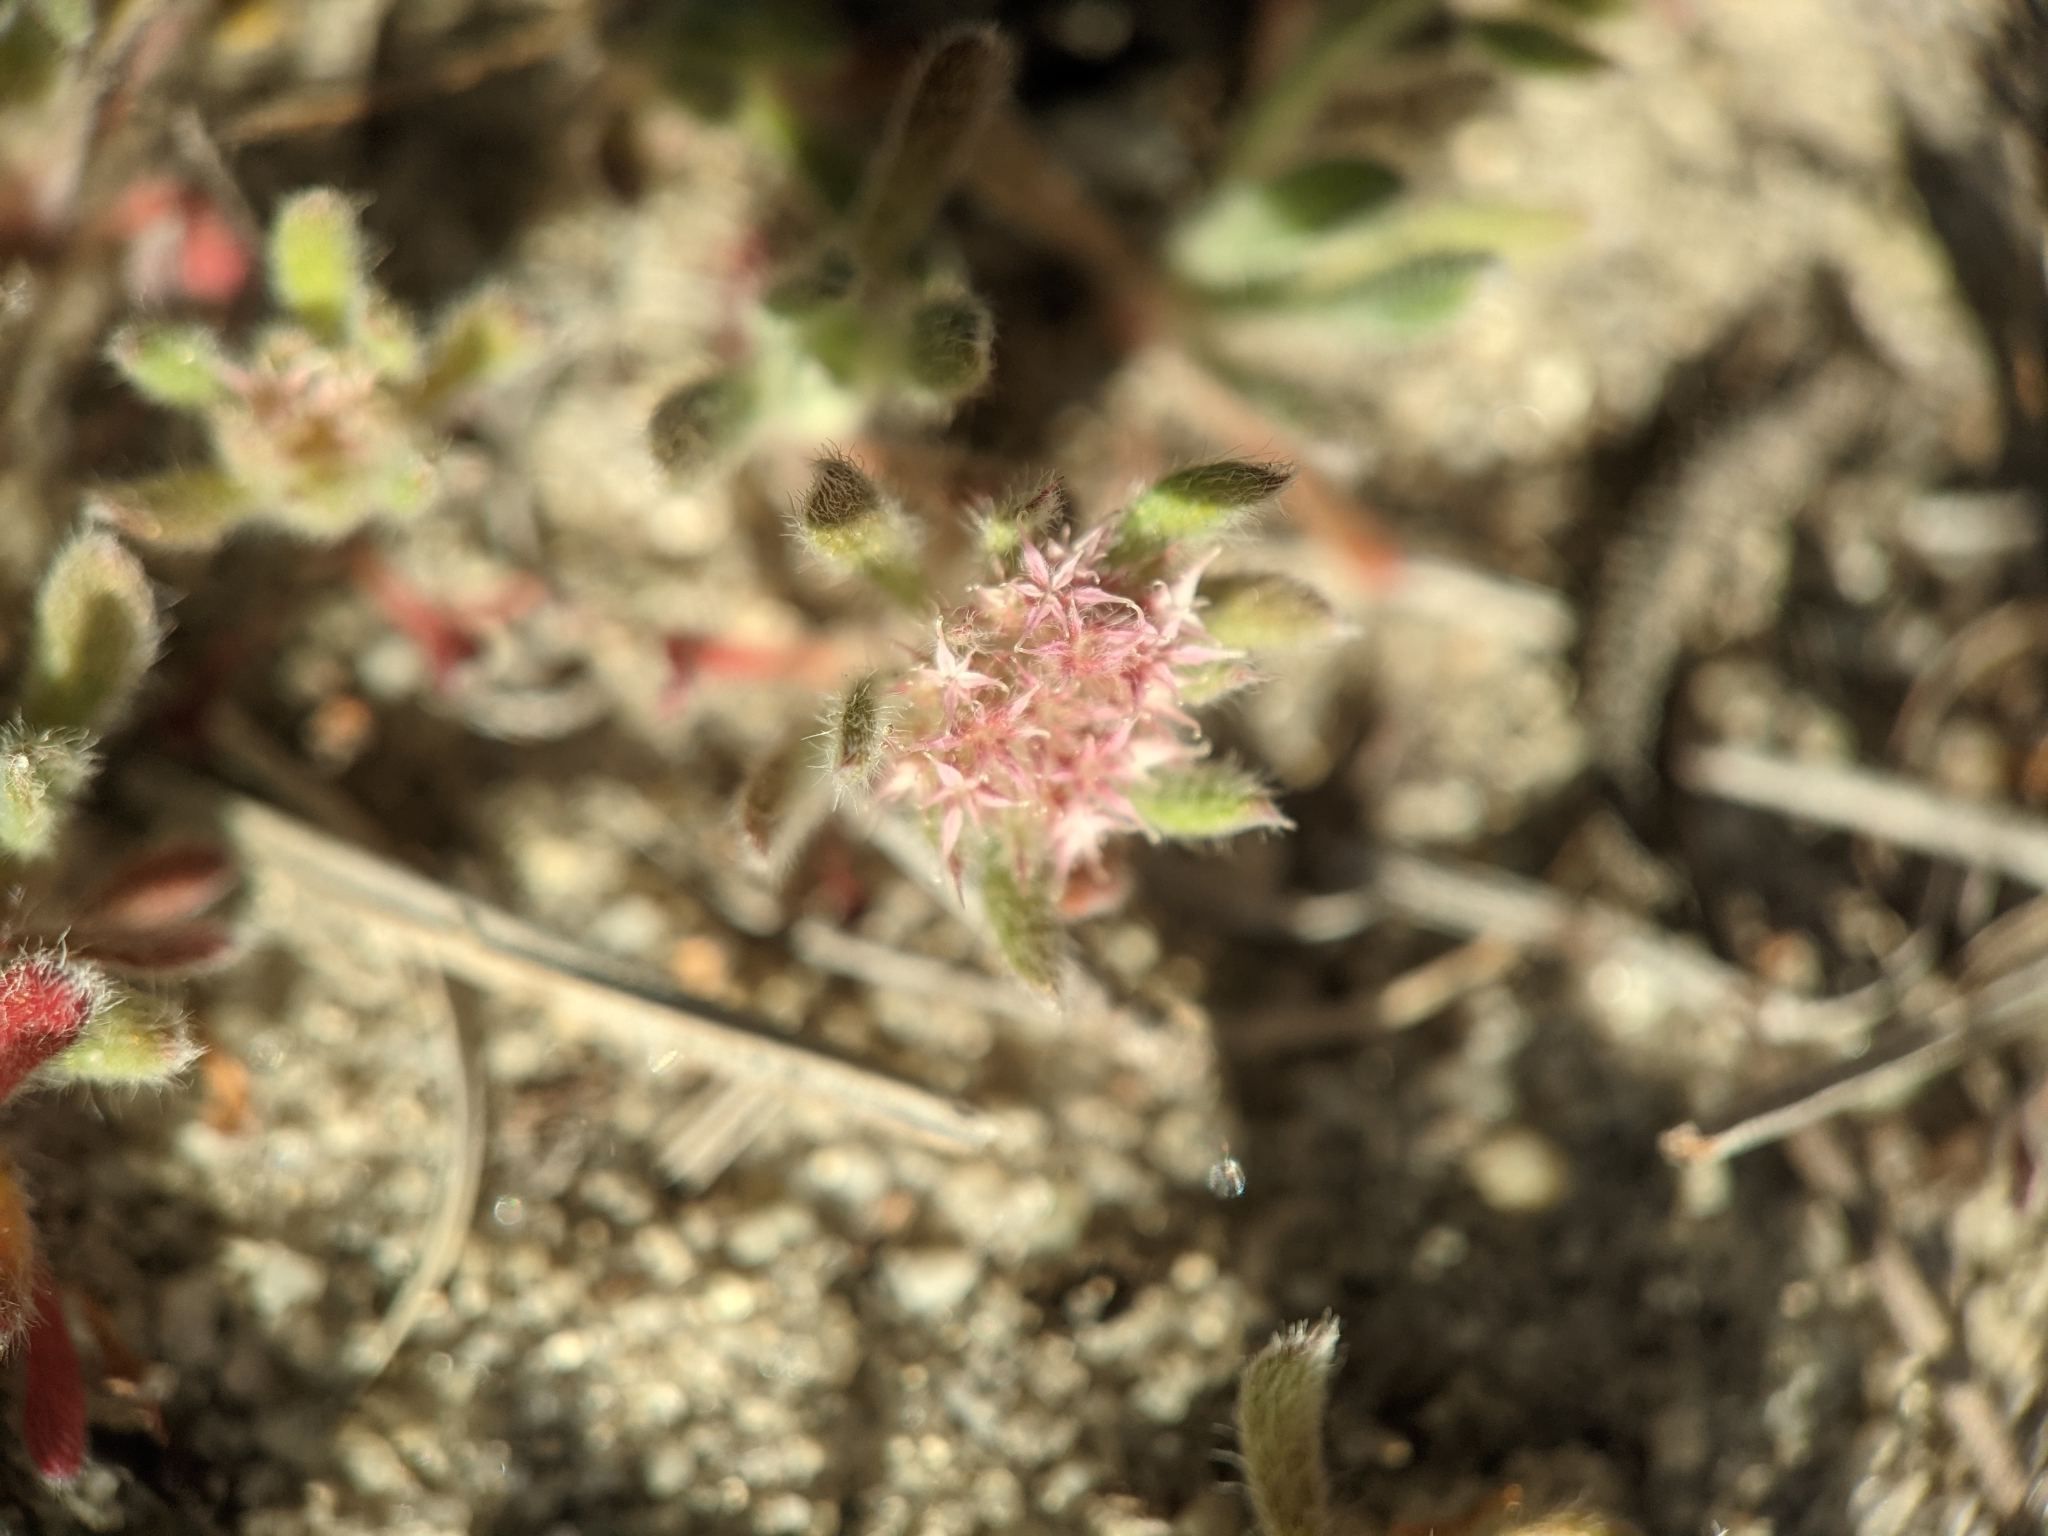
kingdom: Plantae
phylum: Tracheophyta
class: Magnoliopsida
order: Caryophyllales
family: Polygonaceae
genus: Chorizanthe
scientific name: Chorizanthe pungens
